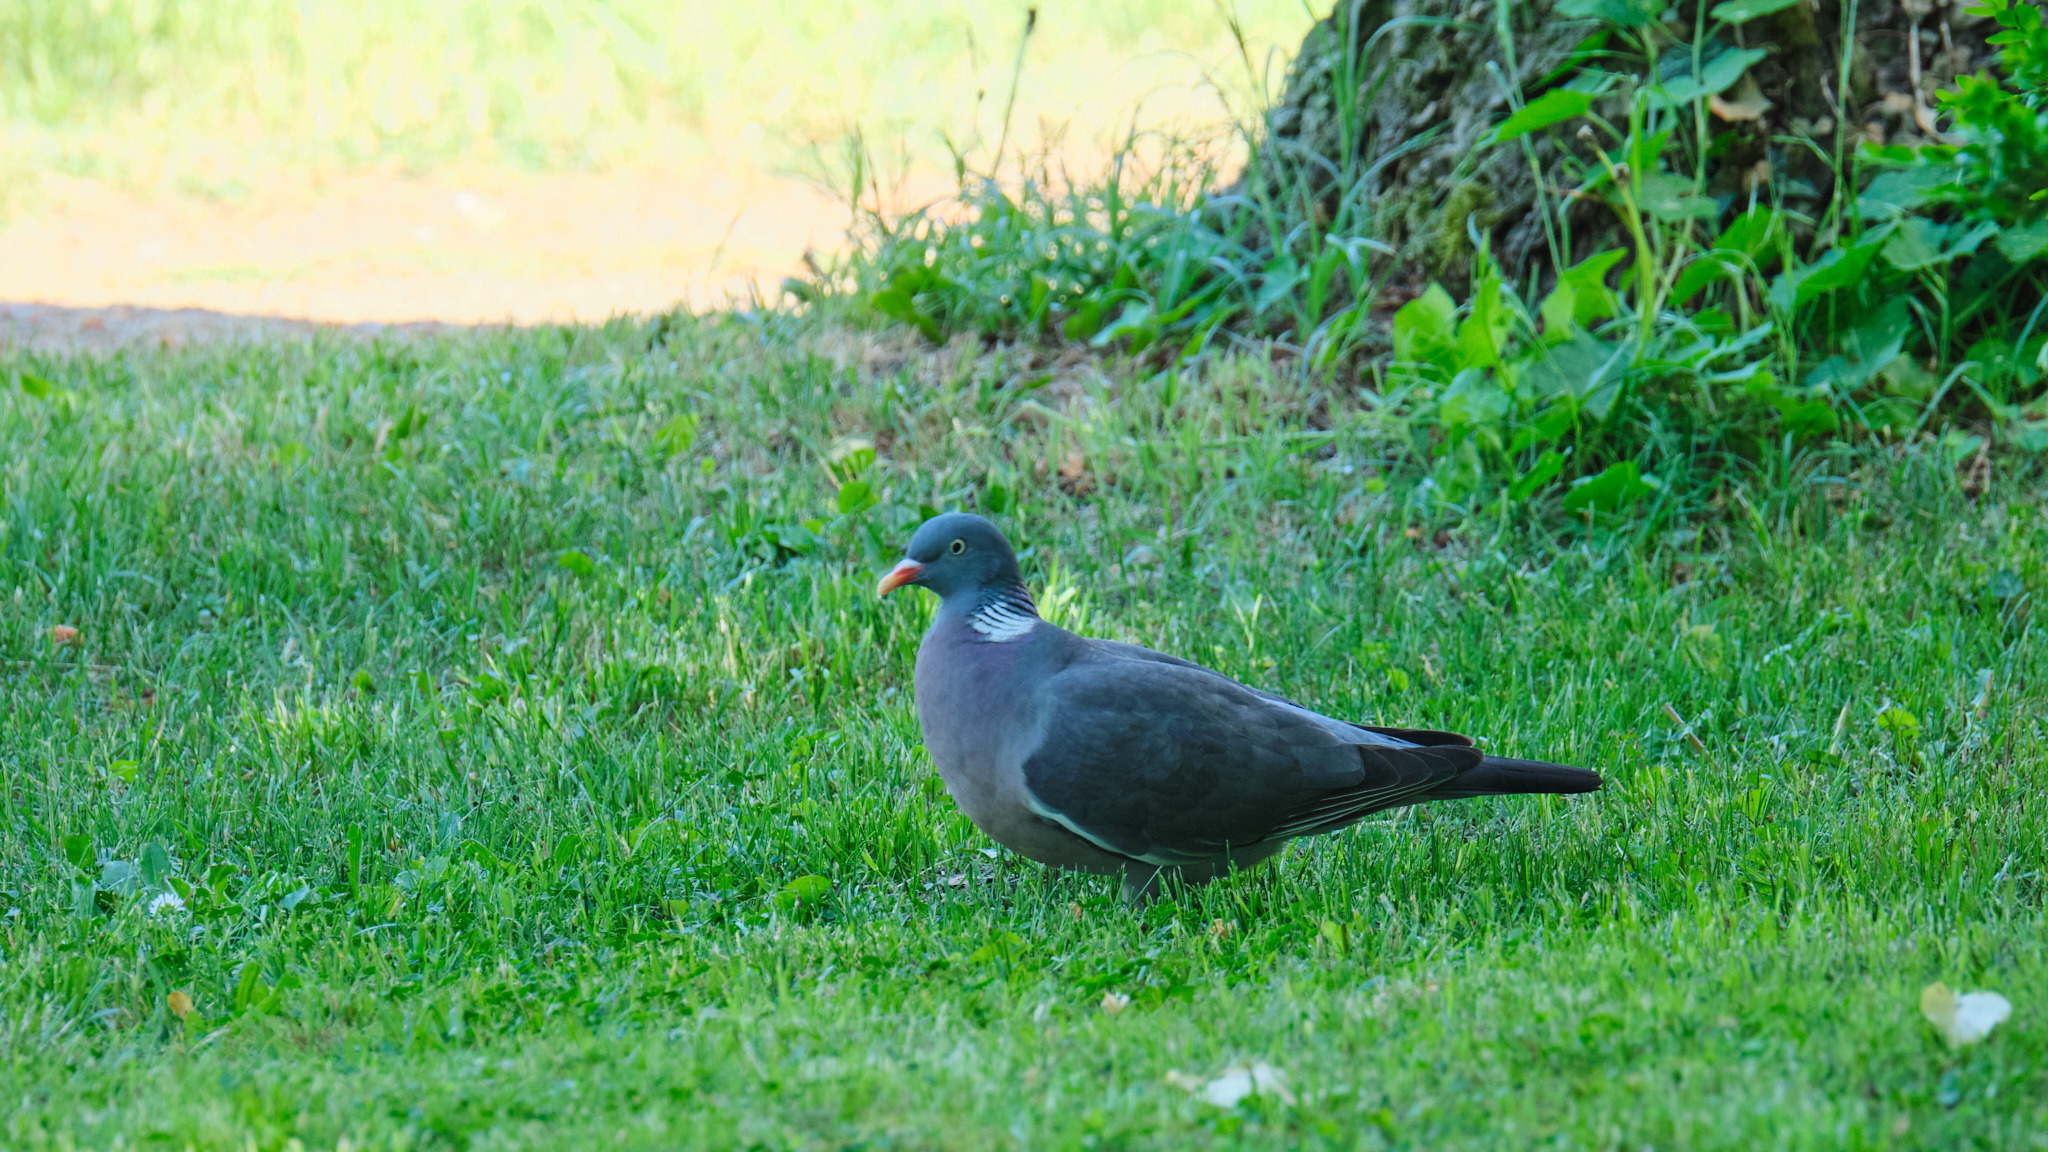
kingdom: Animalia
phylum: Chordata
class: Aves
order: Columbiformes
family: Columbidae
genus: Columba
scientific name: Columba palumbus
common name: Common wood pigeon
